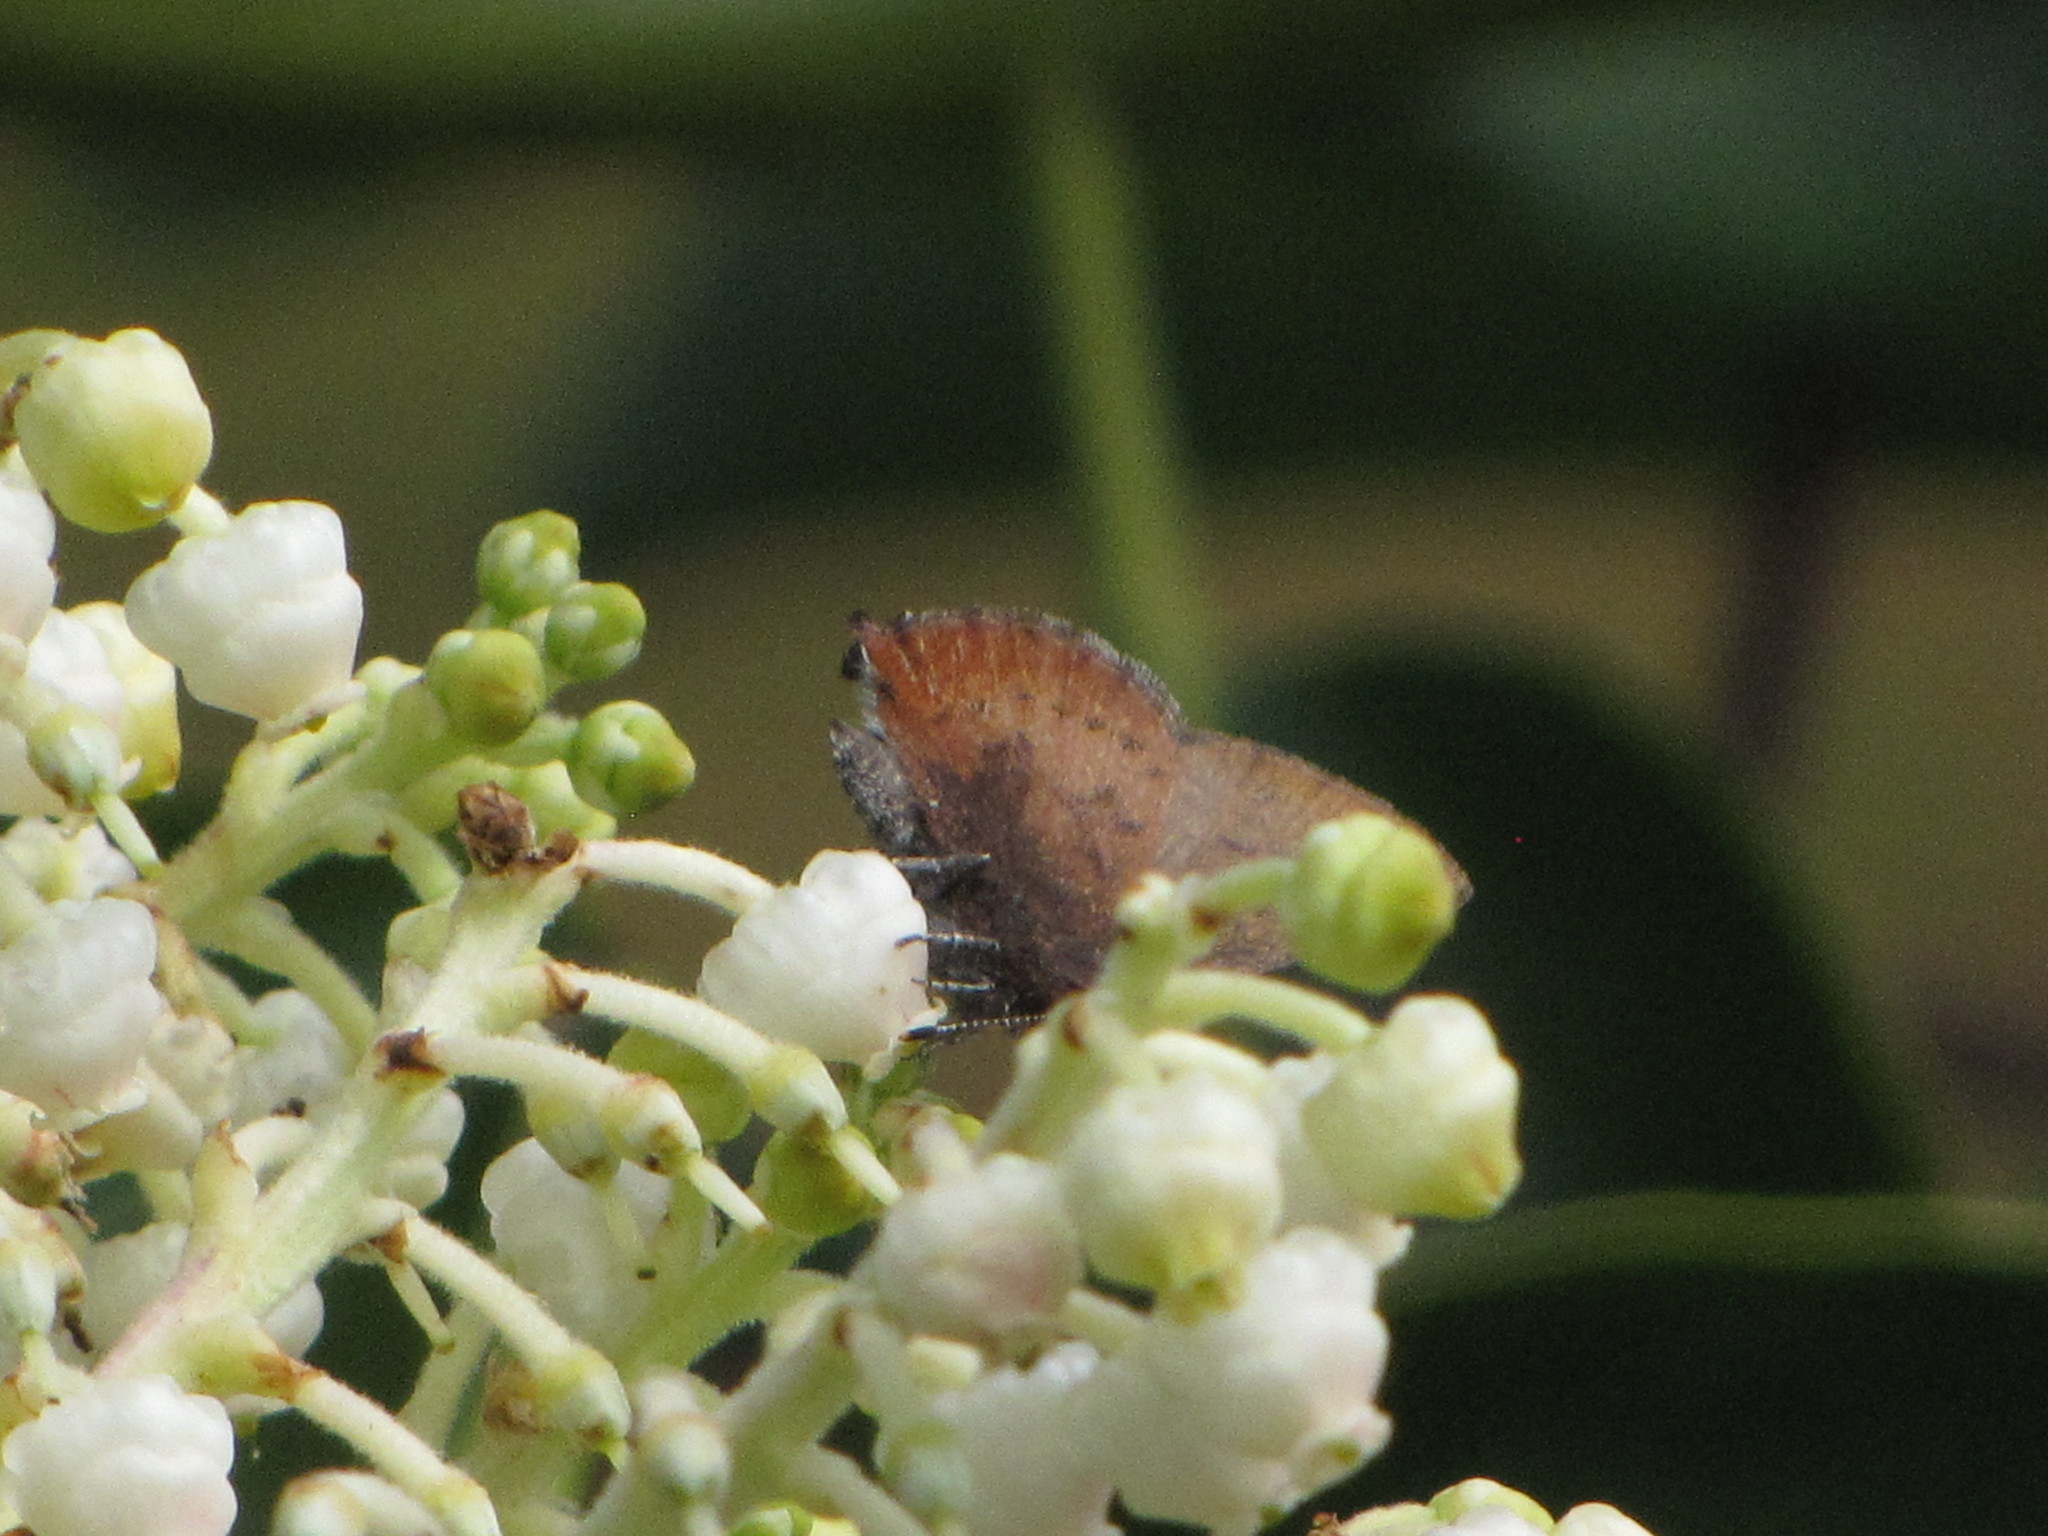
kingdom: Animalia
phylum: Arthropoda
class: Insecta
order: Lepidoptera
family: Lycaenidae
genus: Thecla
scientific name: Thecla iroides
